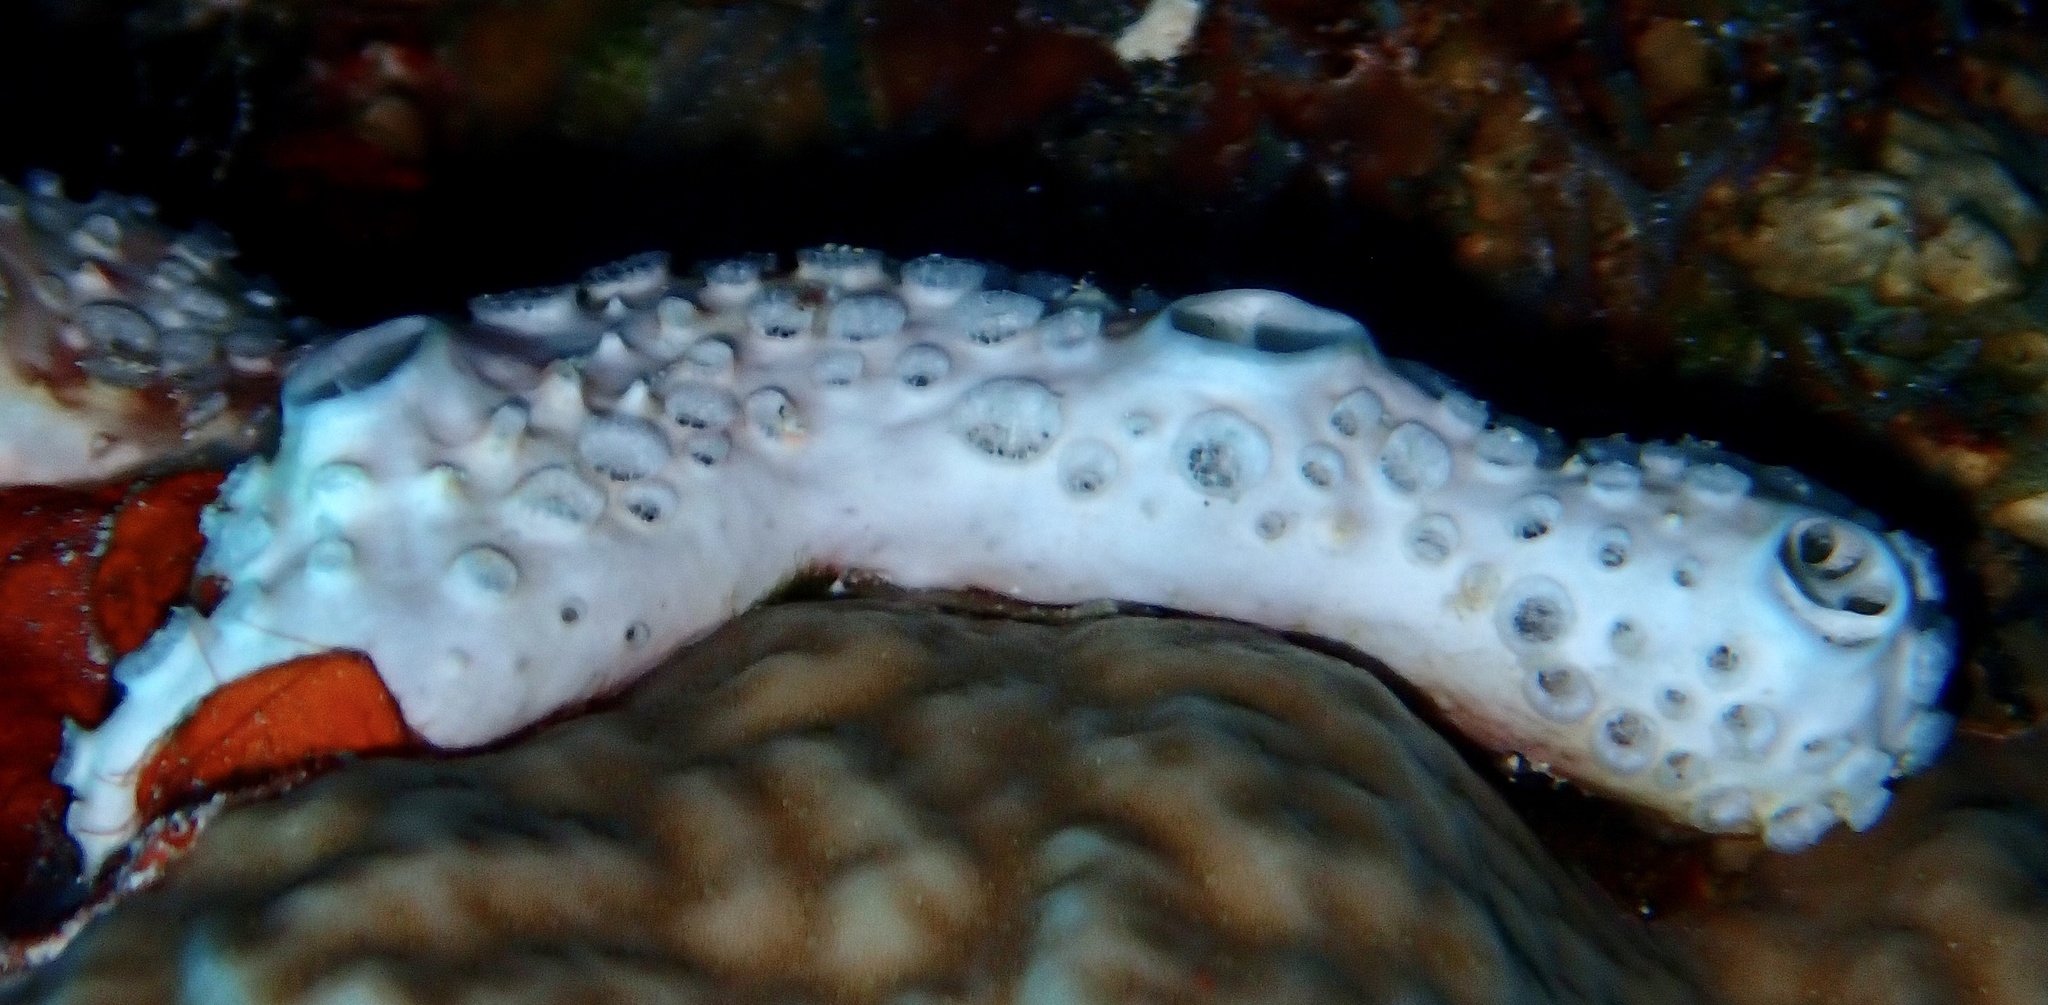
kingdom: Animalia
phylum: Porifera
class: Demospongiae
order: Poecilosclerida
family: Crellidae
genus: Crella
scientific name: Crella cyathophora
